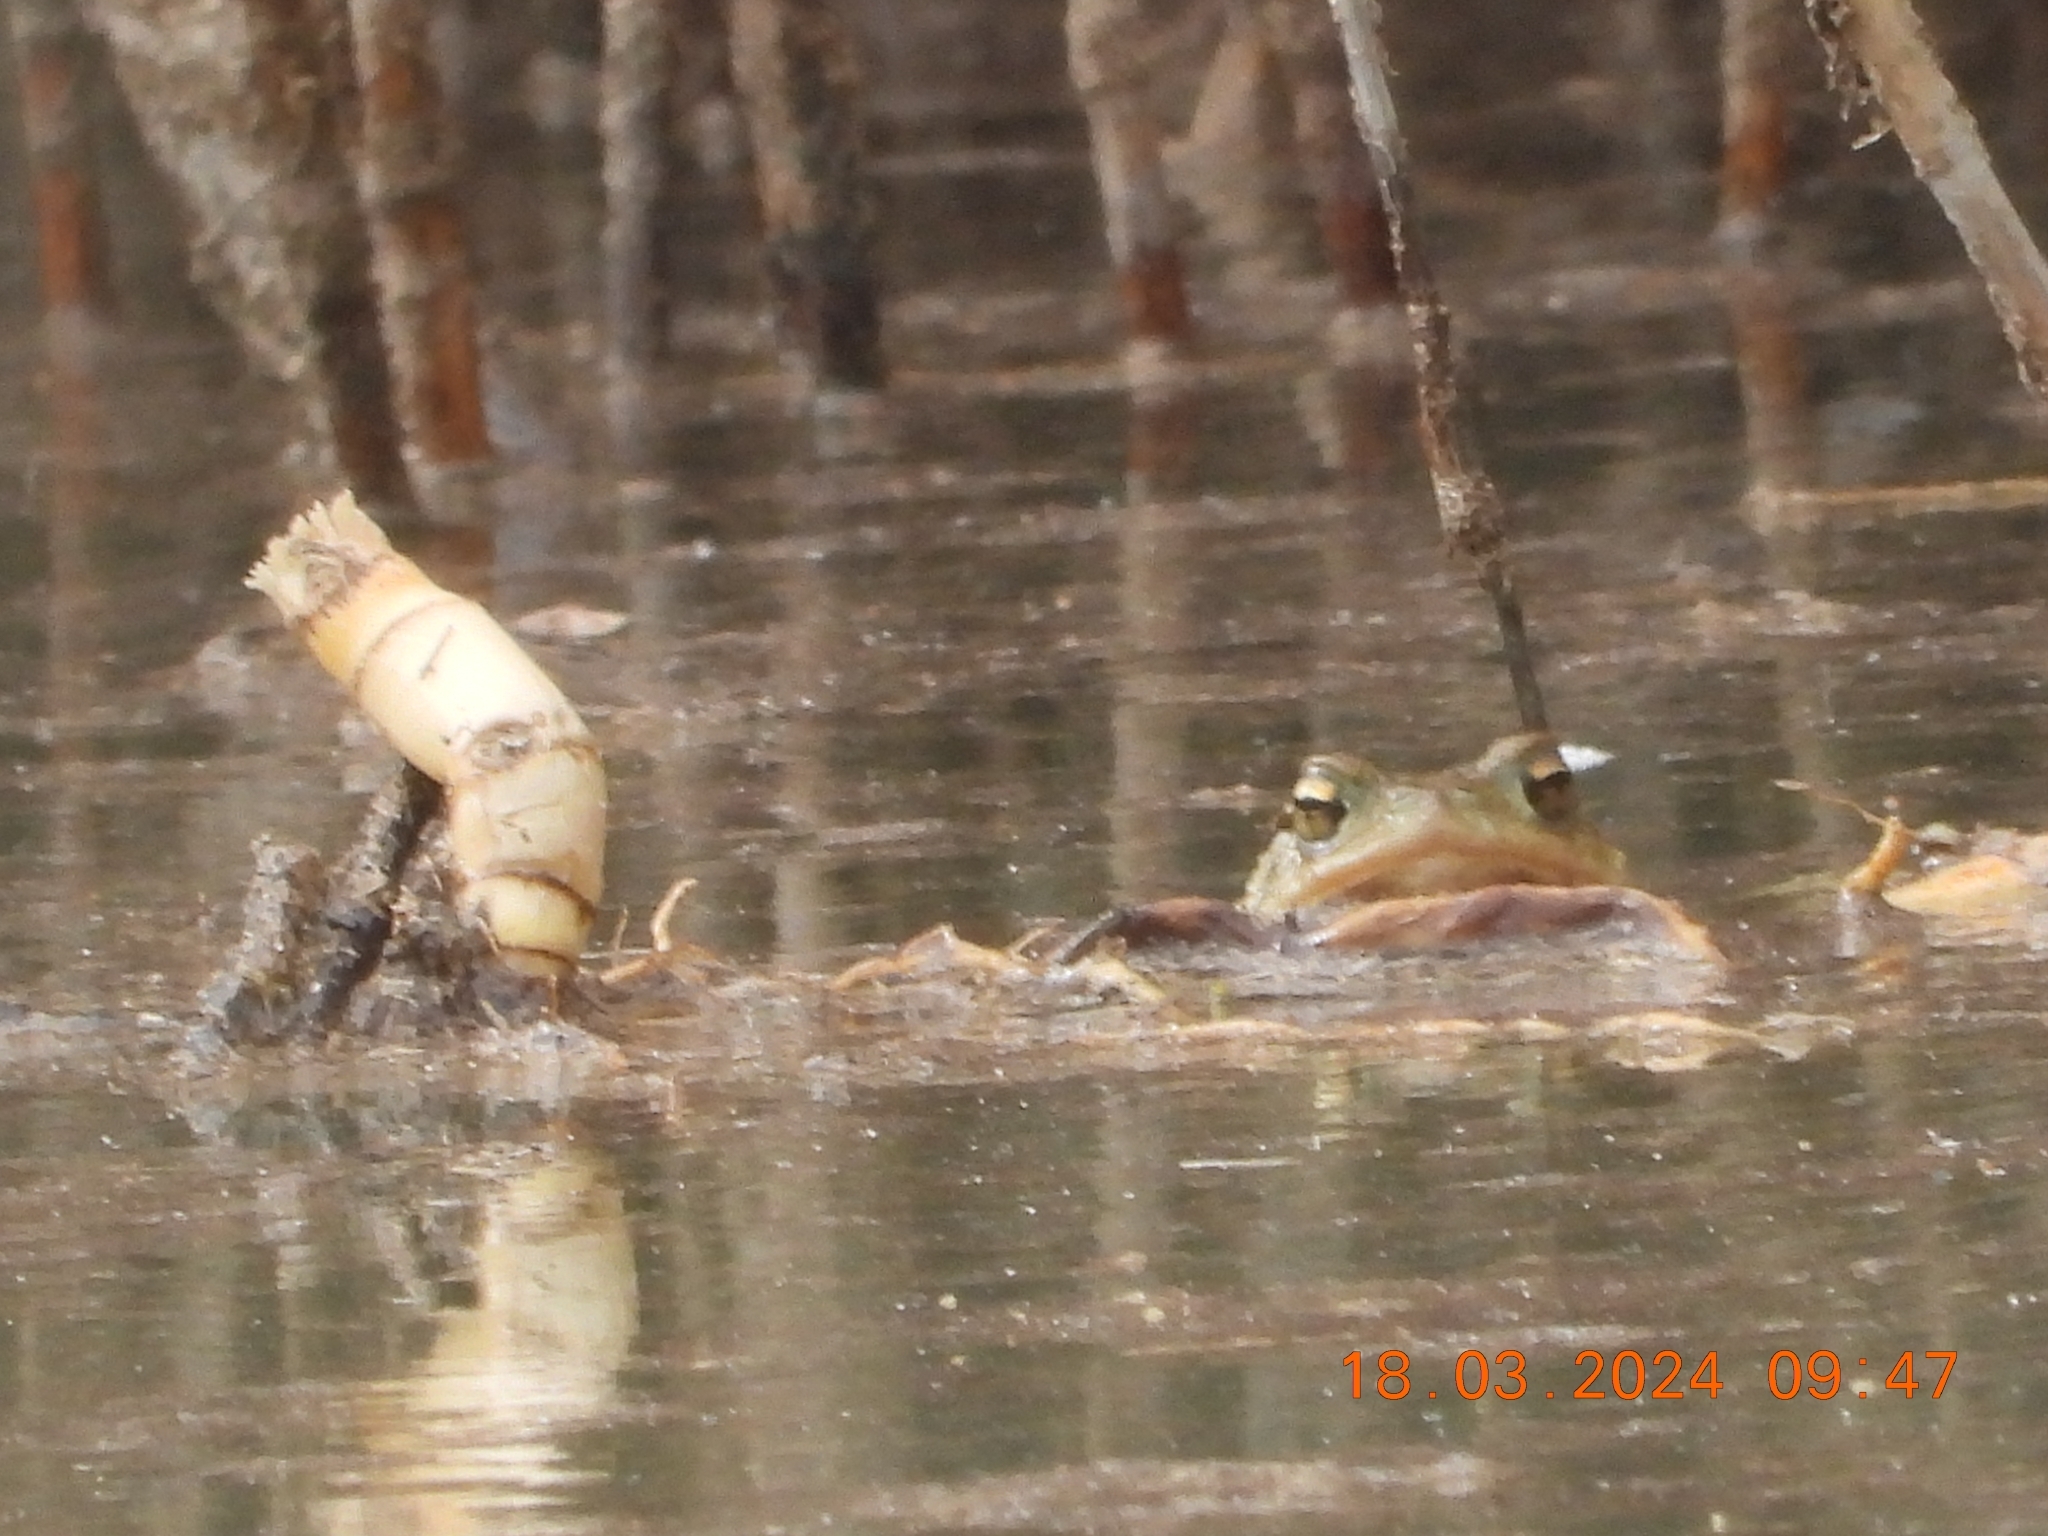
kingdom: Animalia
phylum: Chordata
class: Amphibia
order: Anura
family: Bufonidae
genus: Bufo
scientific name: Bufo bufo
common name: Common toad
